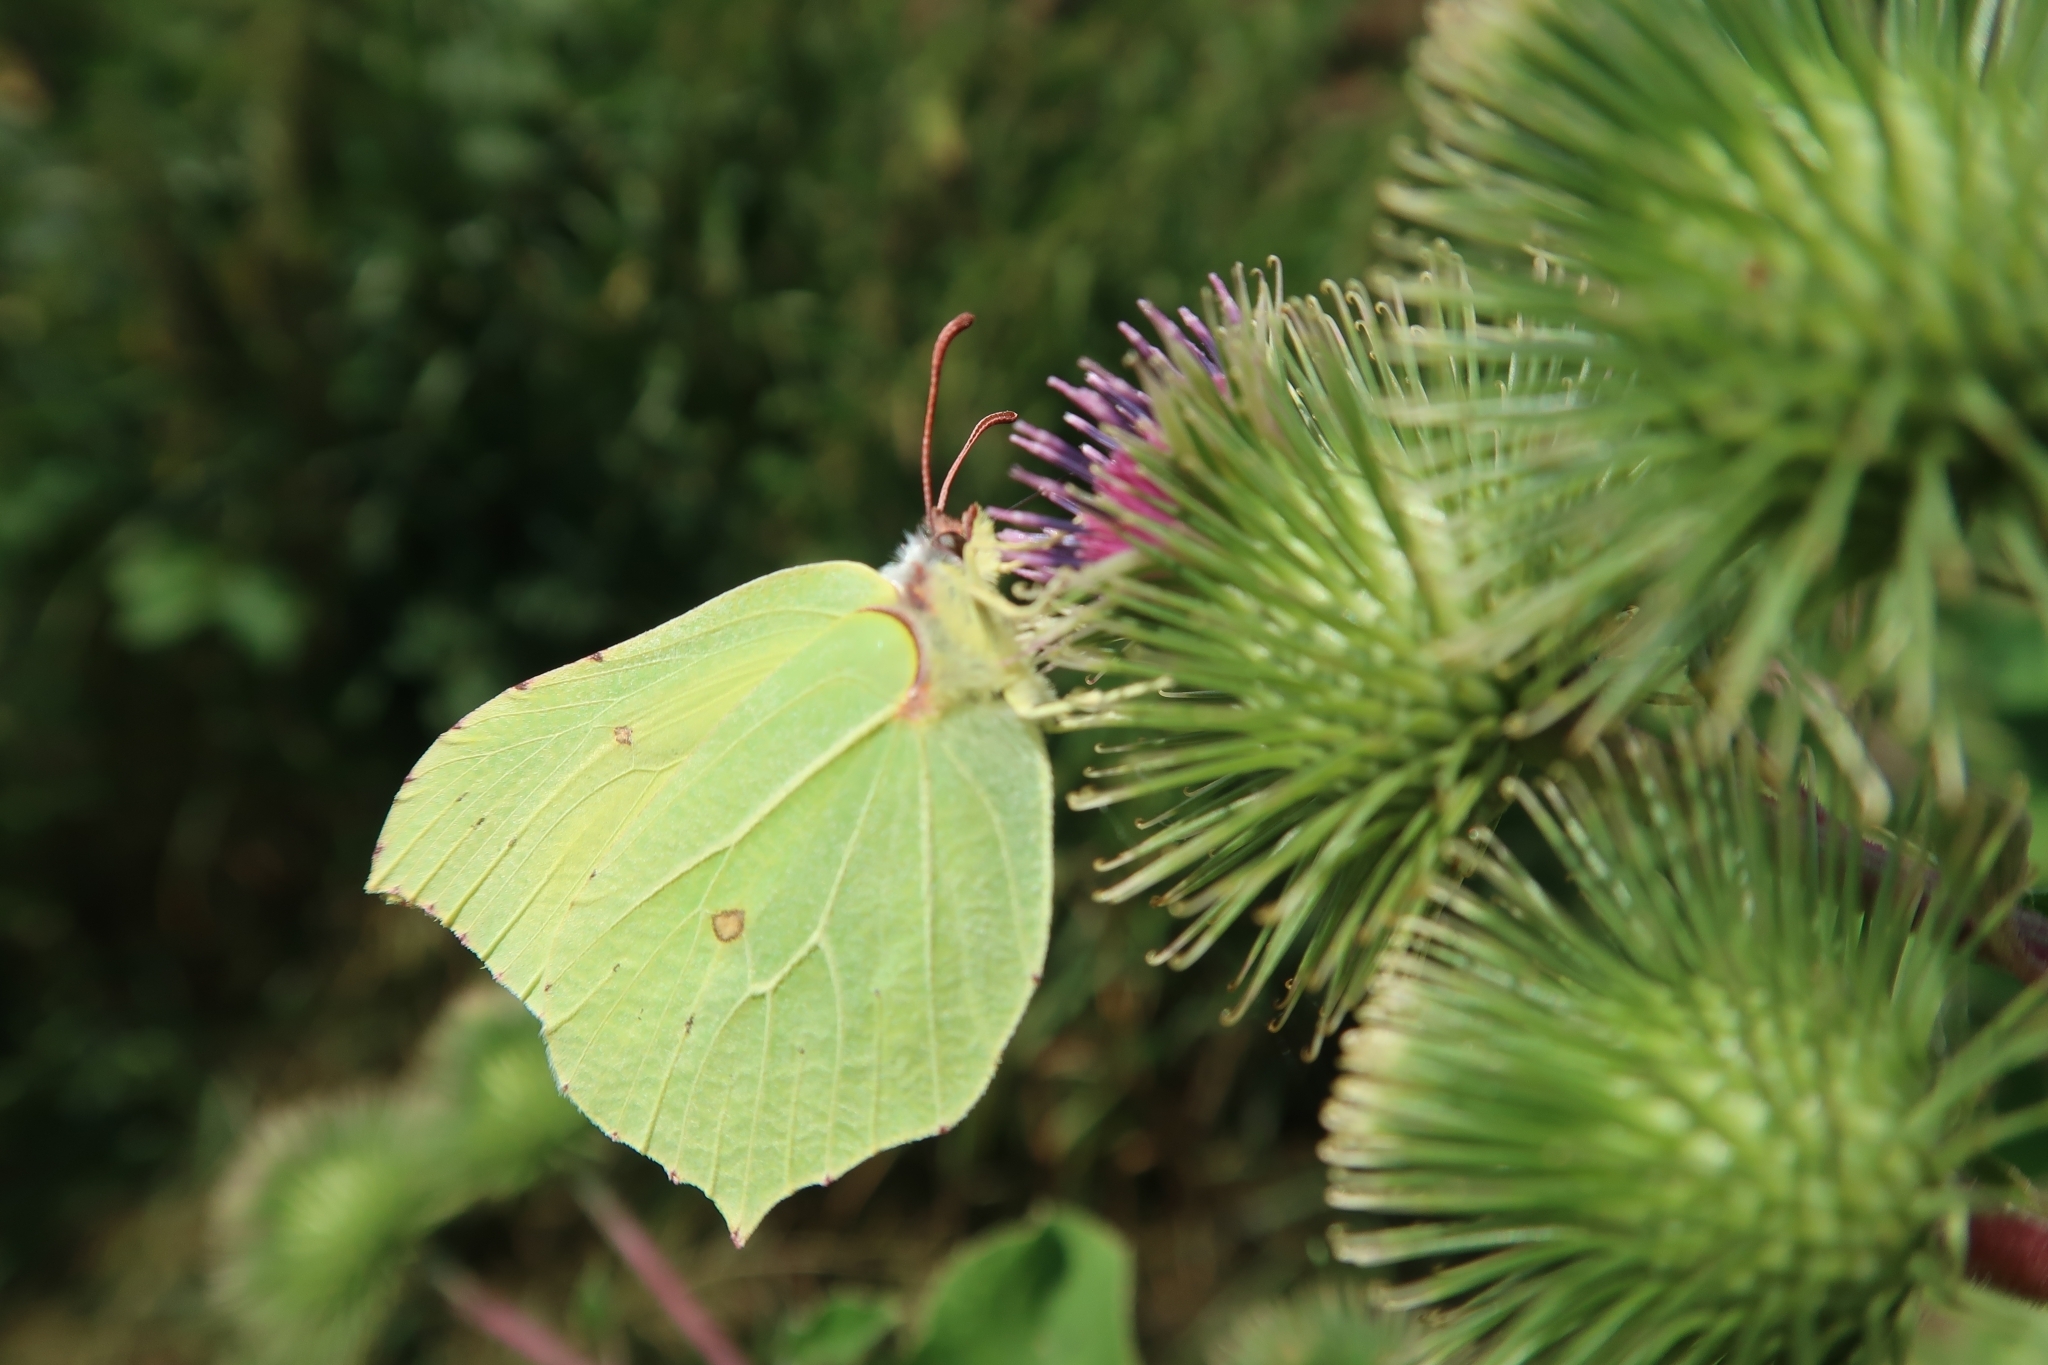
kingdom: Animalia
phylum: Arthropoda
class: Insecta
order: Lepidoptera
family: Pieridae
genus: Gonepteryx
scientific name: Gonepteryx rhamni
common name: Brimstone
